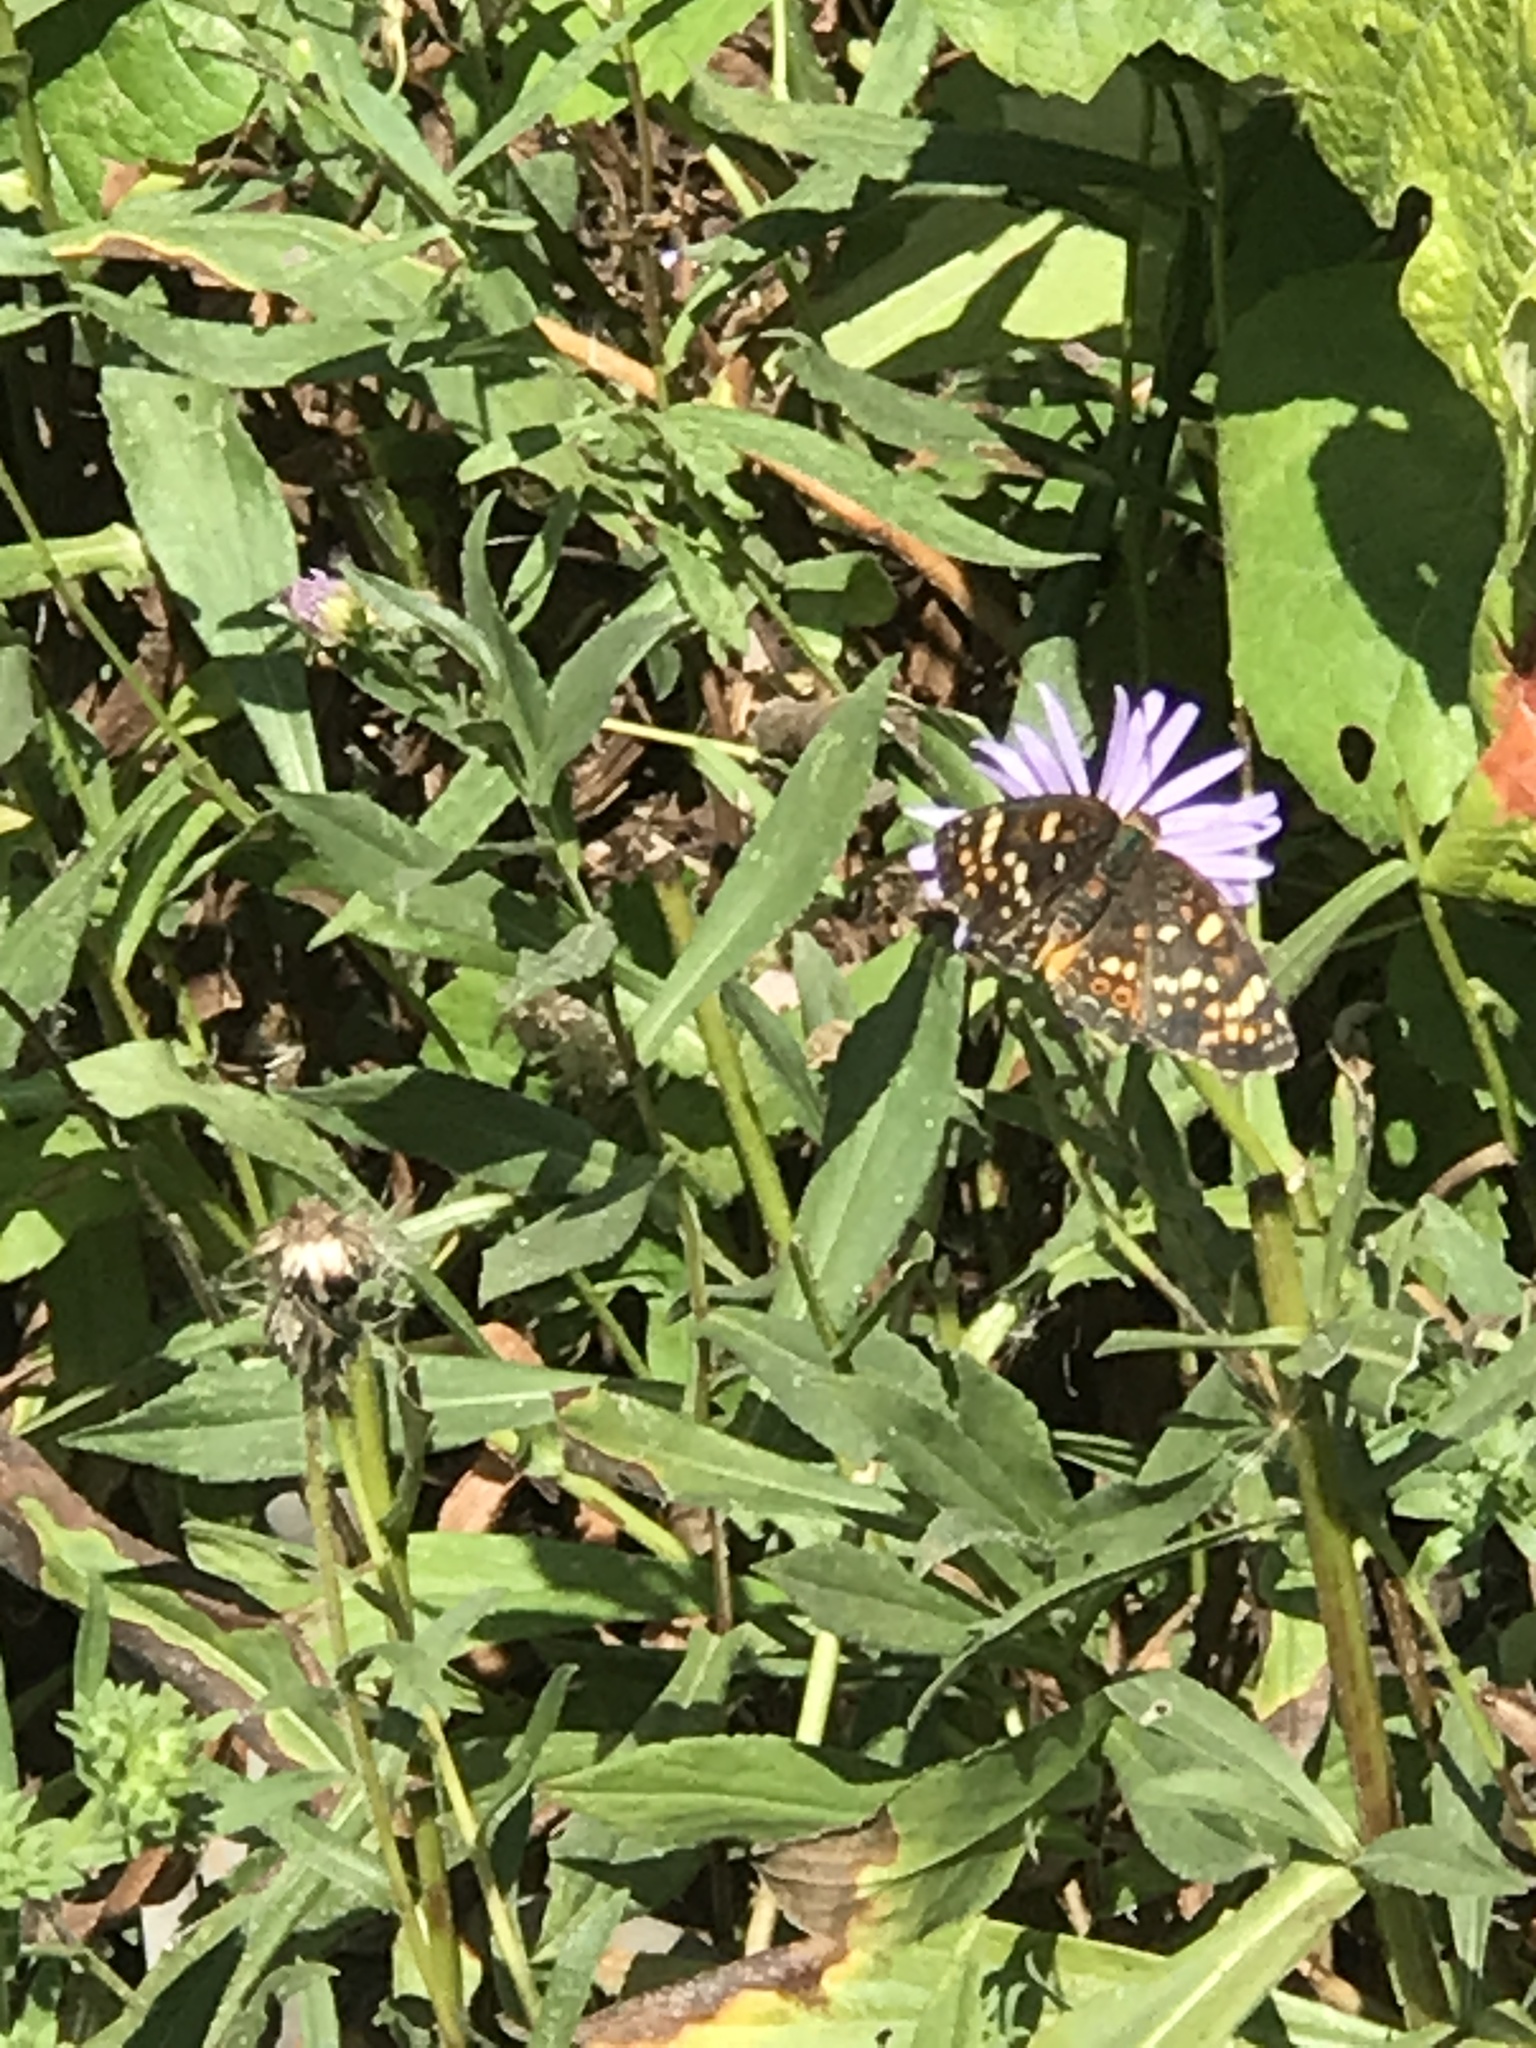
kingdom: Animalia
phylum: Arthropoda
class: Insecta
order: Lepidoptera
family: Nymphalidae
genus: Phyciodes
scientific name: Phyciodes tharos
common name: Pearl crescent
